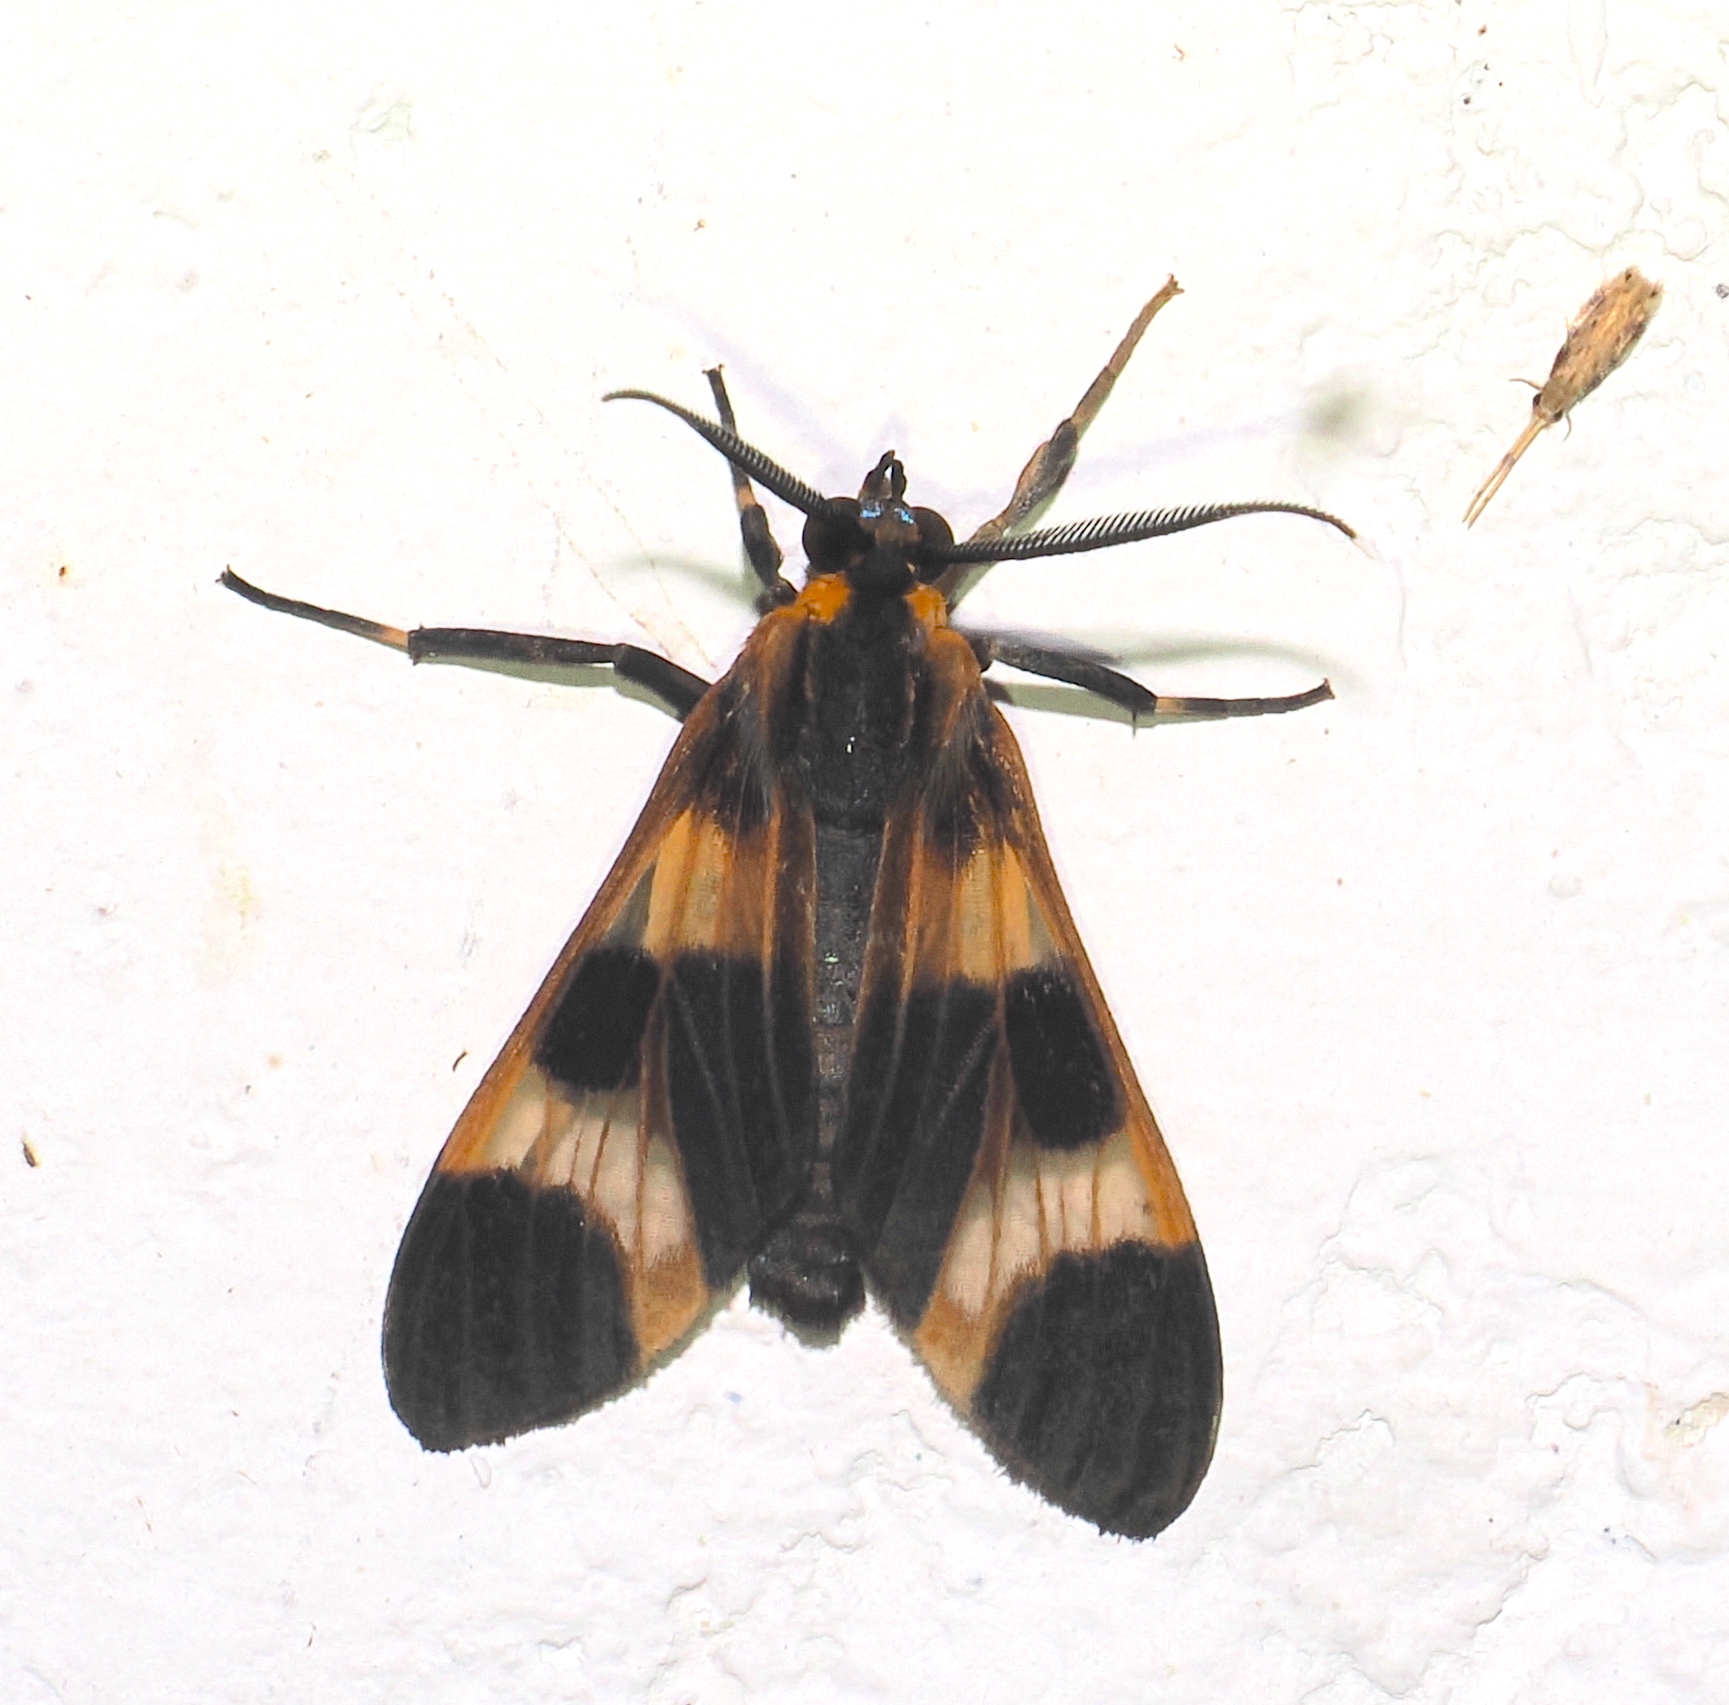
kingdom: Animalia
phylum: Arthropoda
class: Insecta
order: Lepidoptera
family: Erebidae
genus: Dycladia
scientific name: Dycladia emerita
